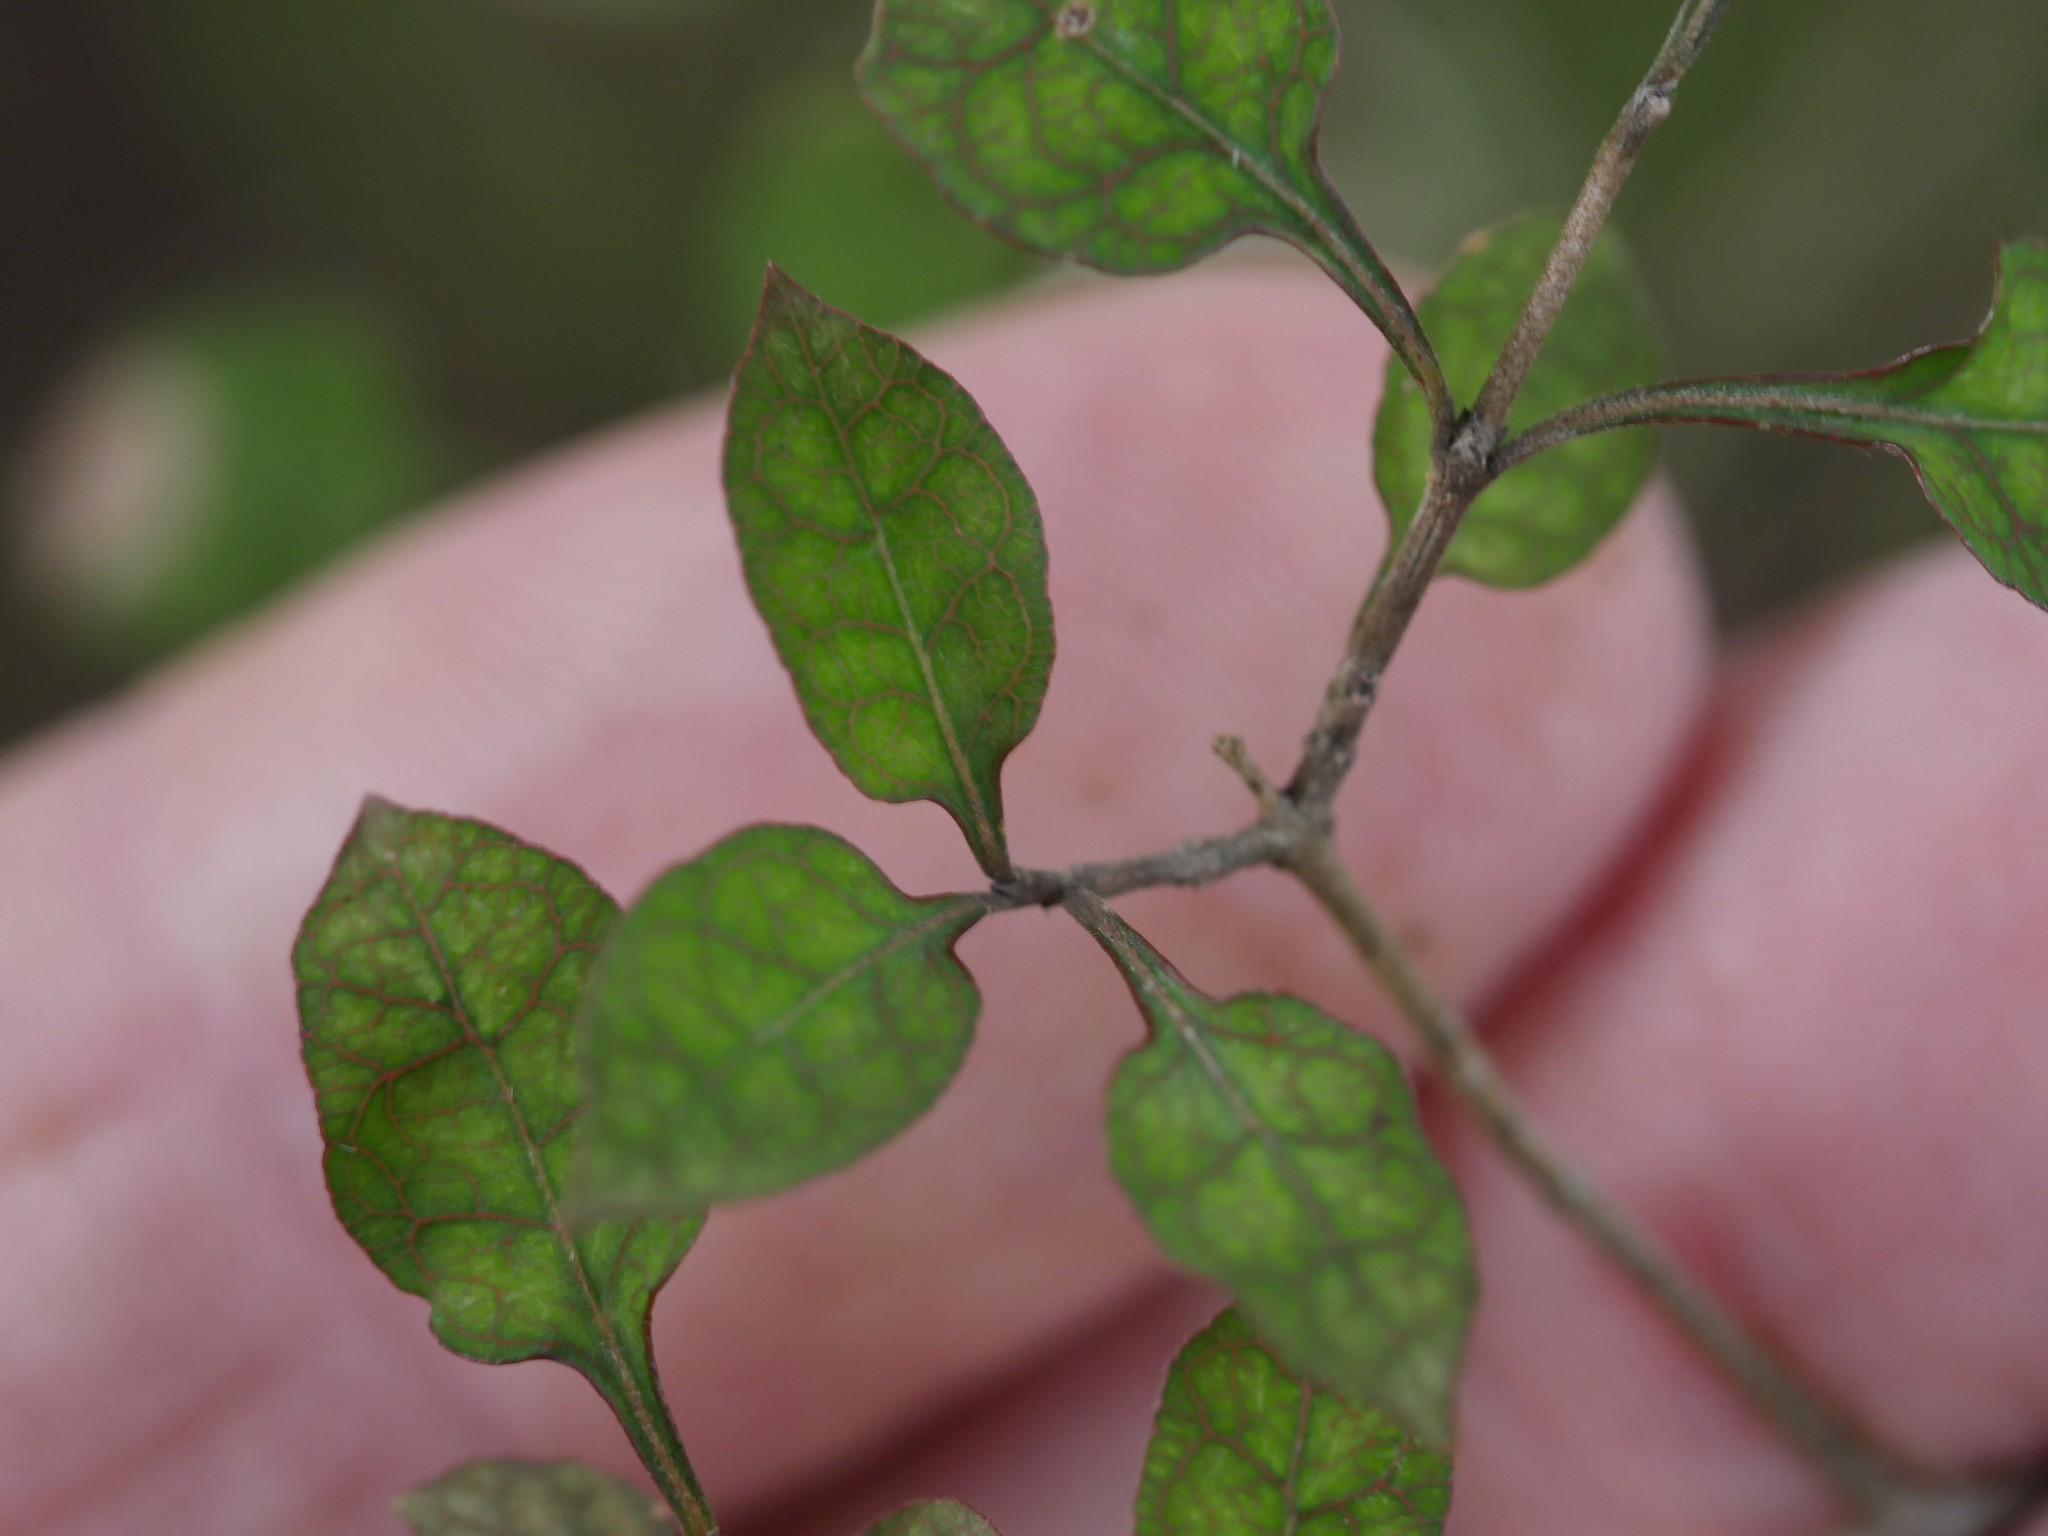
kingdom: Plantae
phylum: Tracheophyta
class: Magnoliopsida
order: Gentianales
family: Rubiaceae
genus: Coprosma
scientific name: Coprosma areolata
